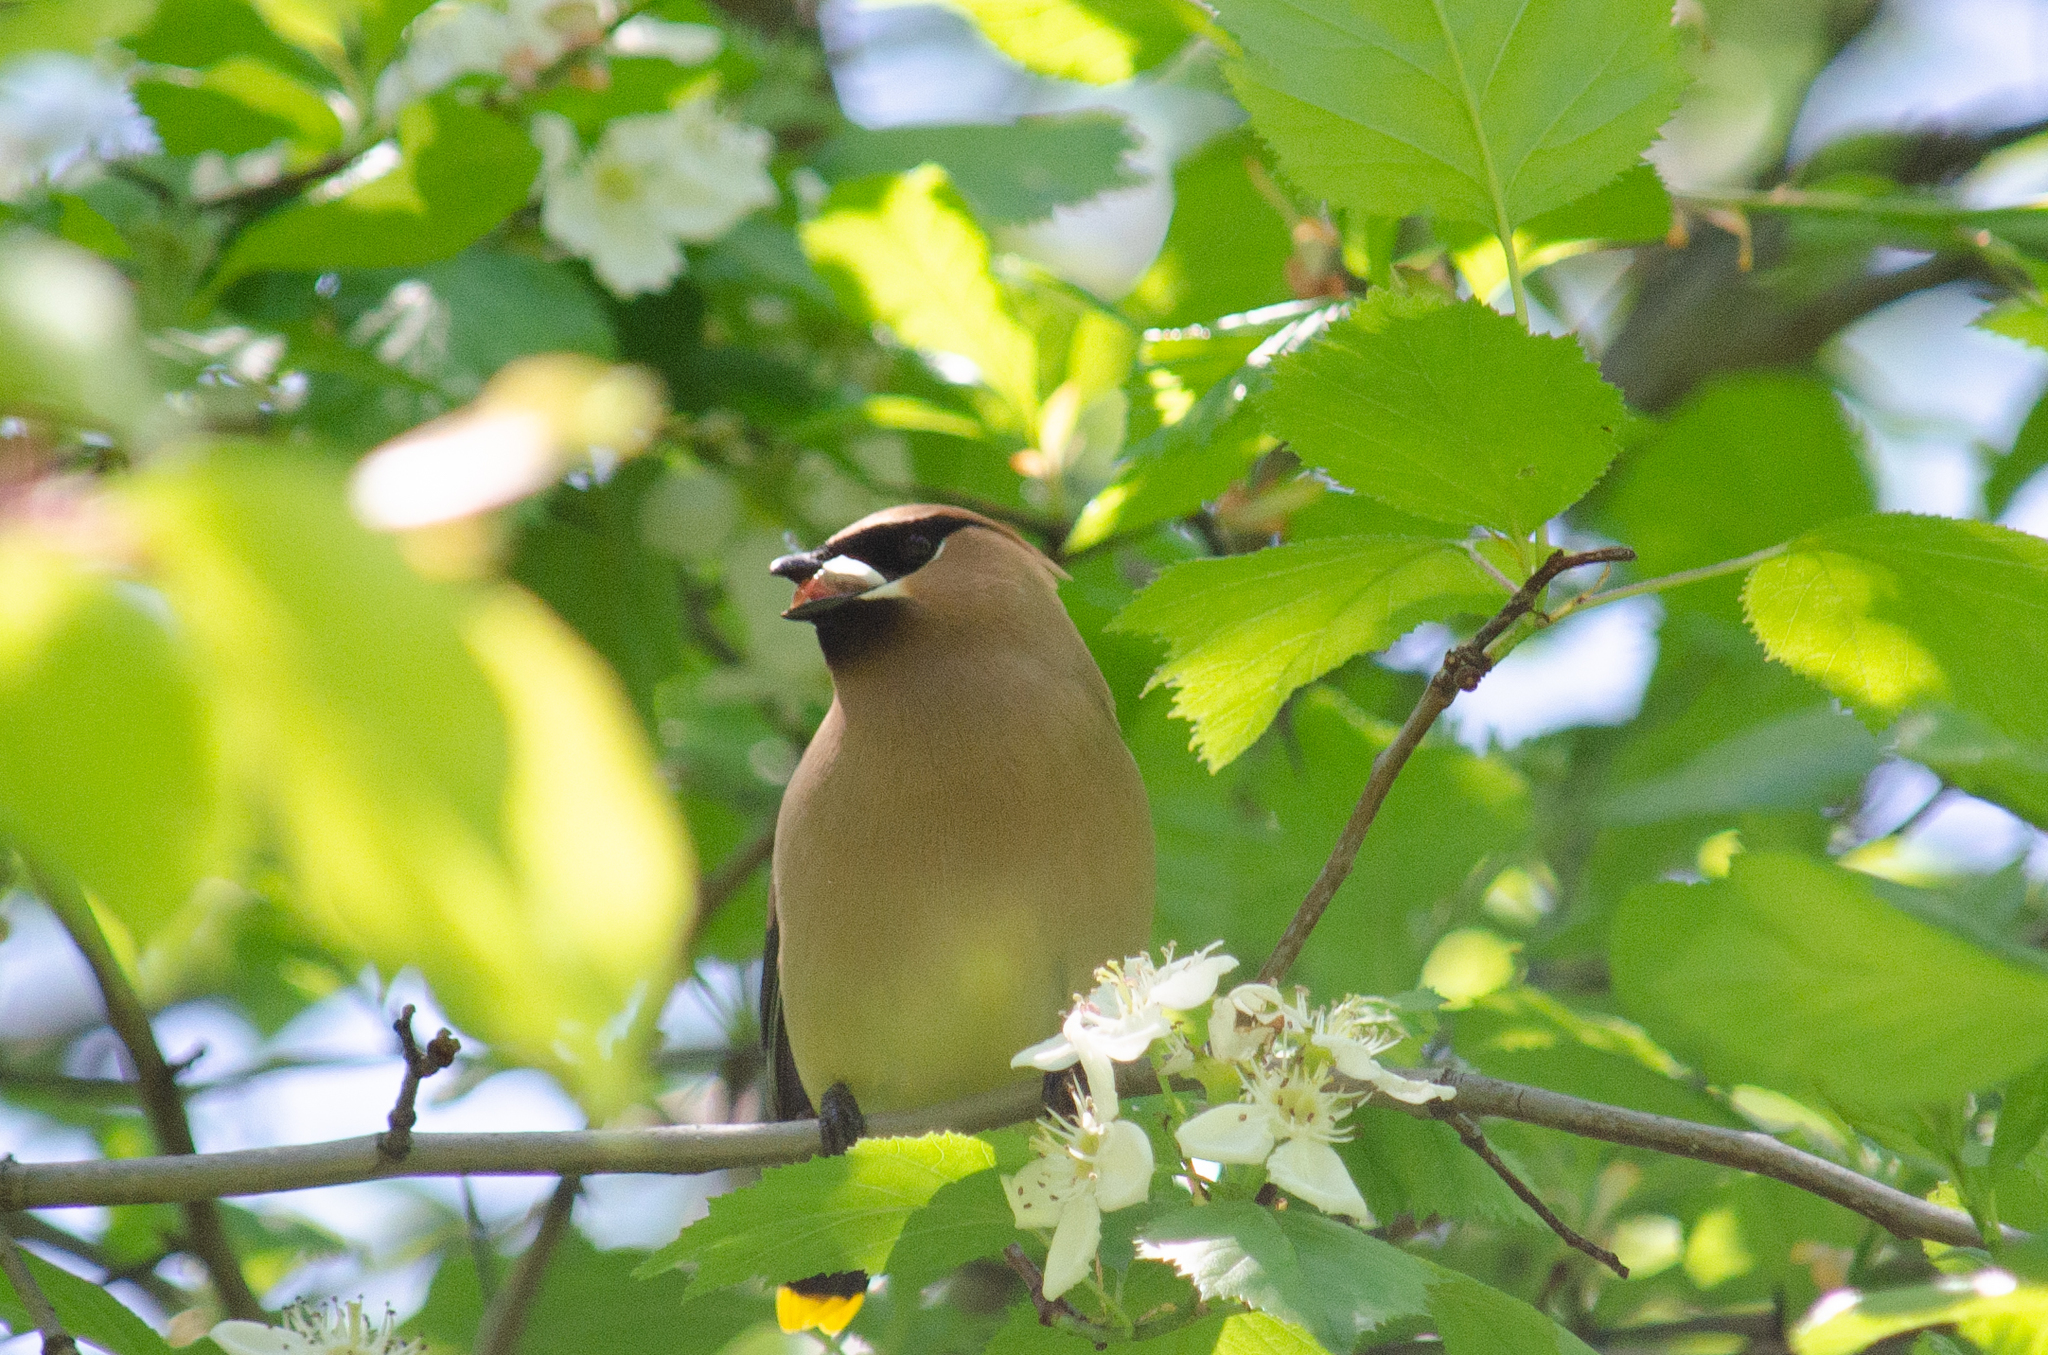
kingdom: Animalia
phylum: Chordata
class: Aves
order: Passeriformes
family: Bombycillidae
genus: Bombycilla
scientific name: Bombycilla cedrorum
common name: Cedar waxwing
